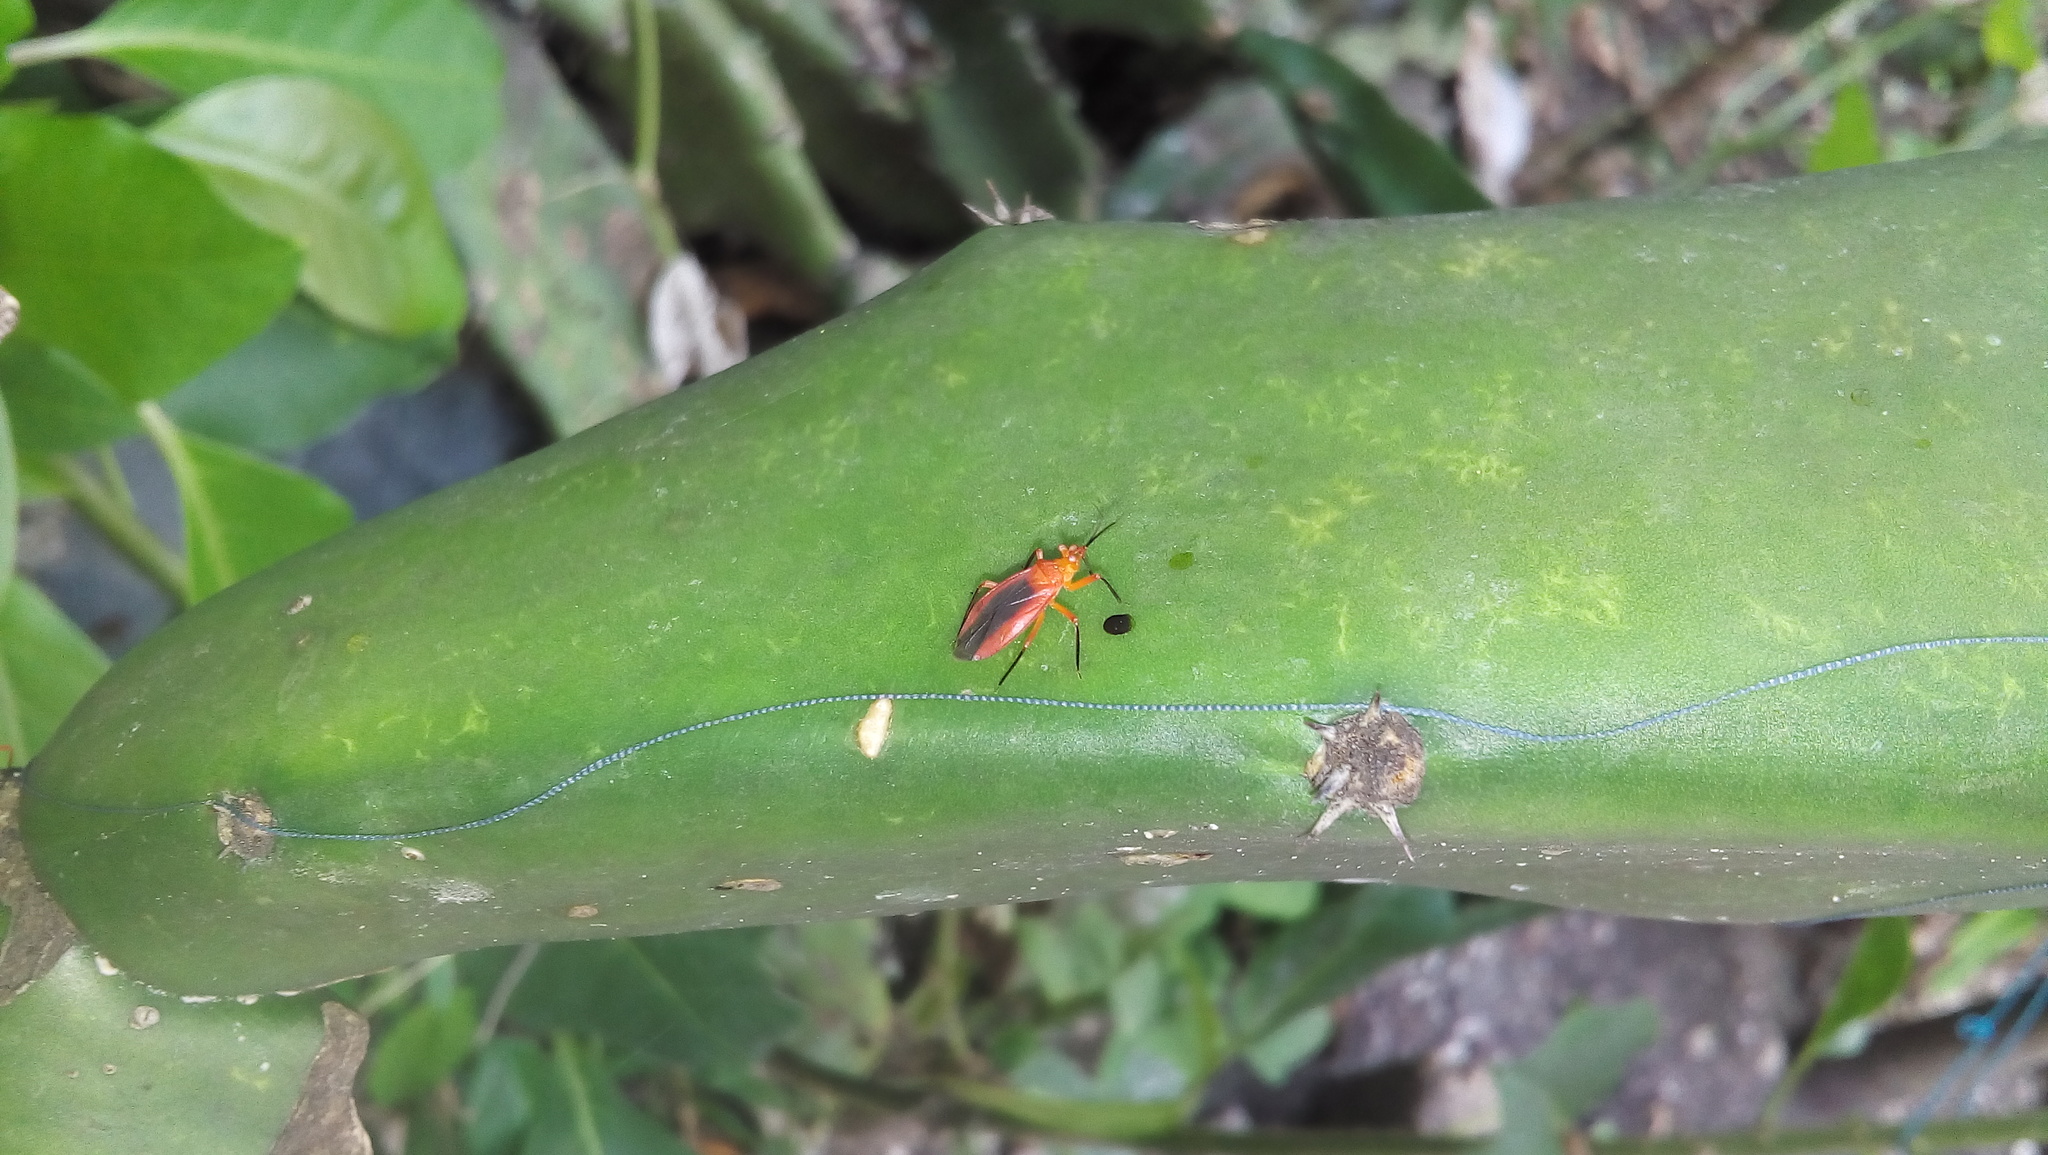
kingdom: Animalia
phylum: Arthropoda
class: Insecta
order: Hemiptera
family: Miridae
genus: Hesperolabops
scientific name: Hesperolabops periscopis
